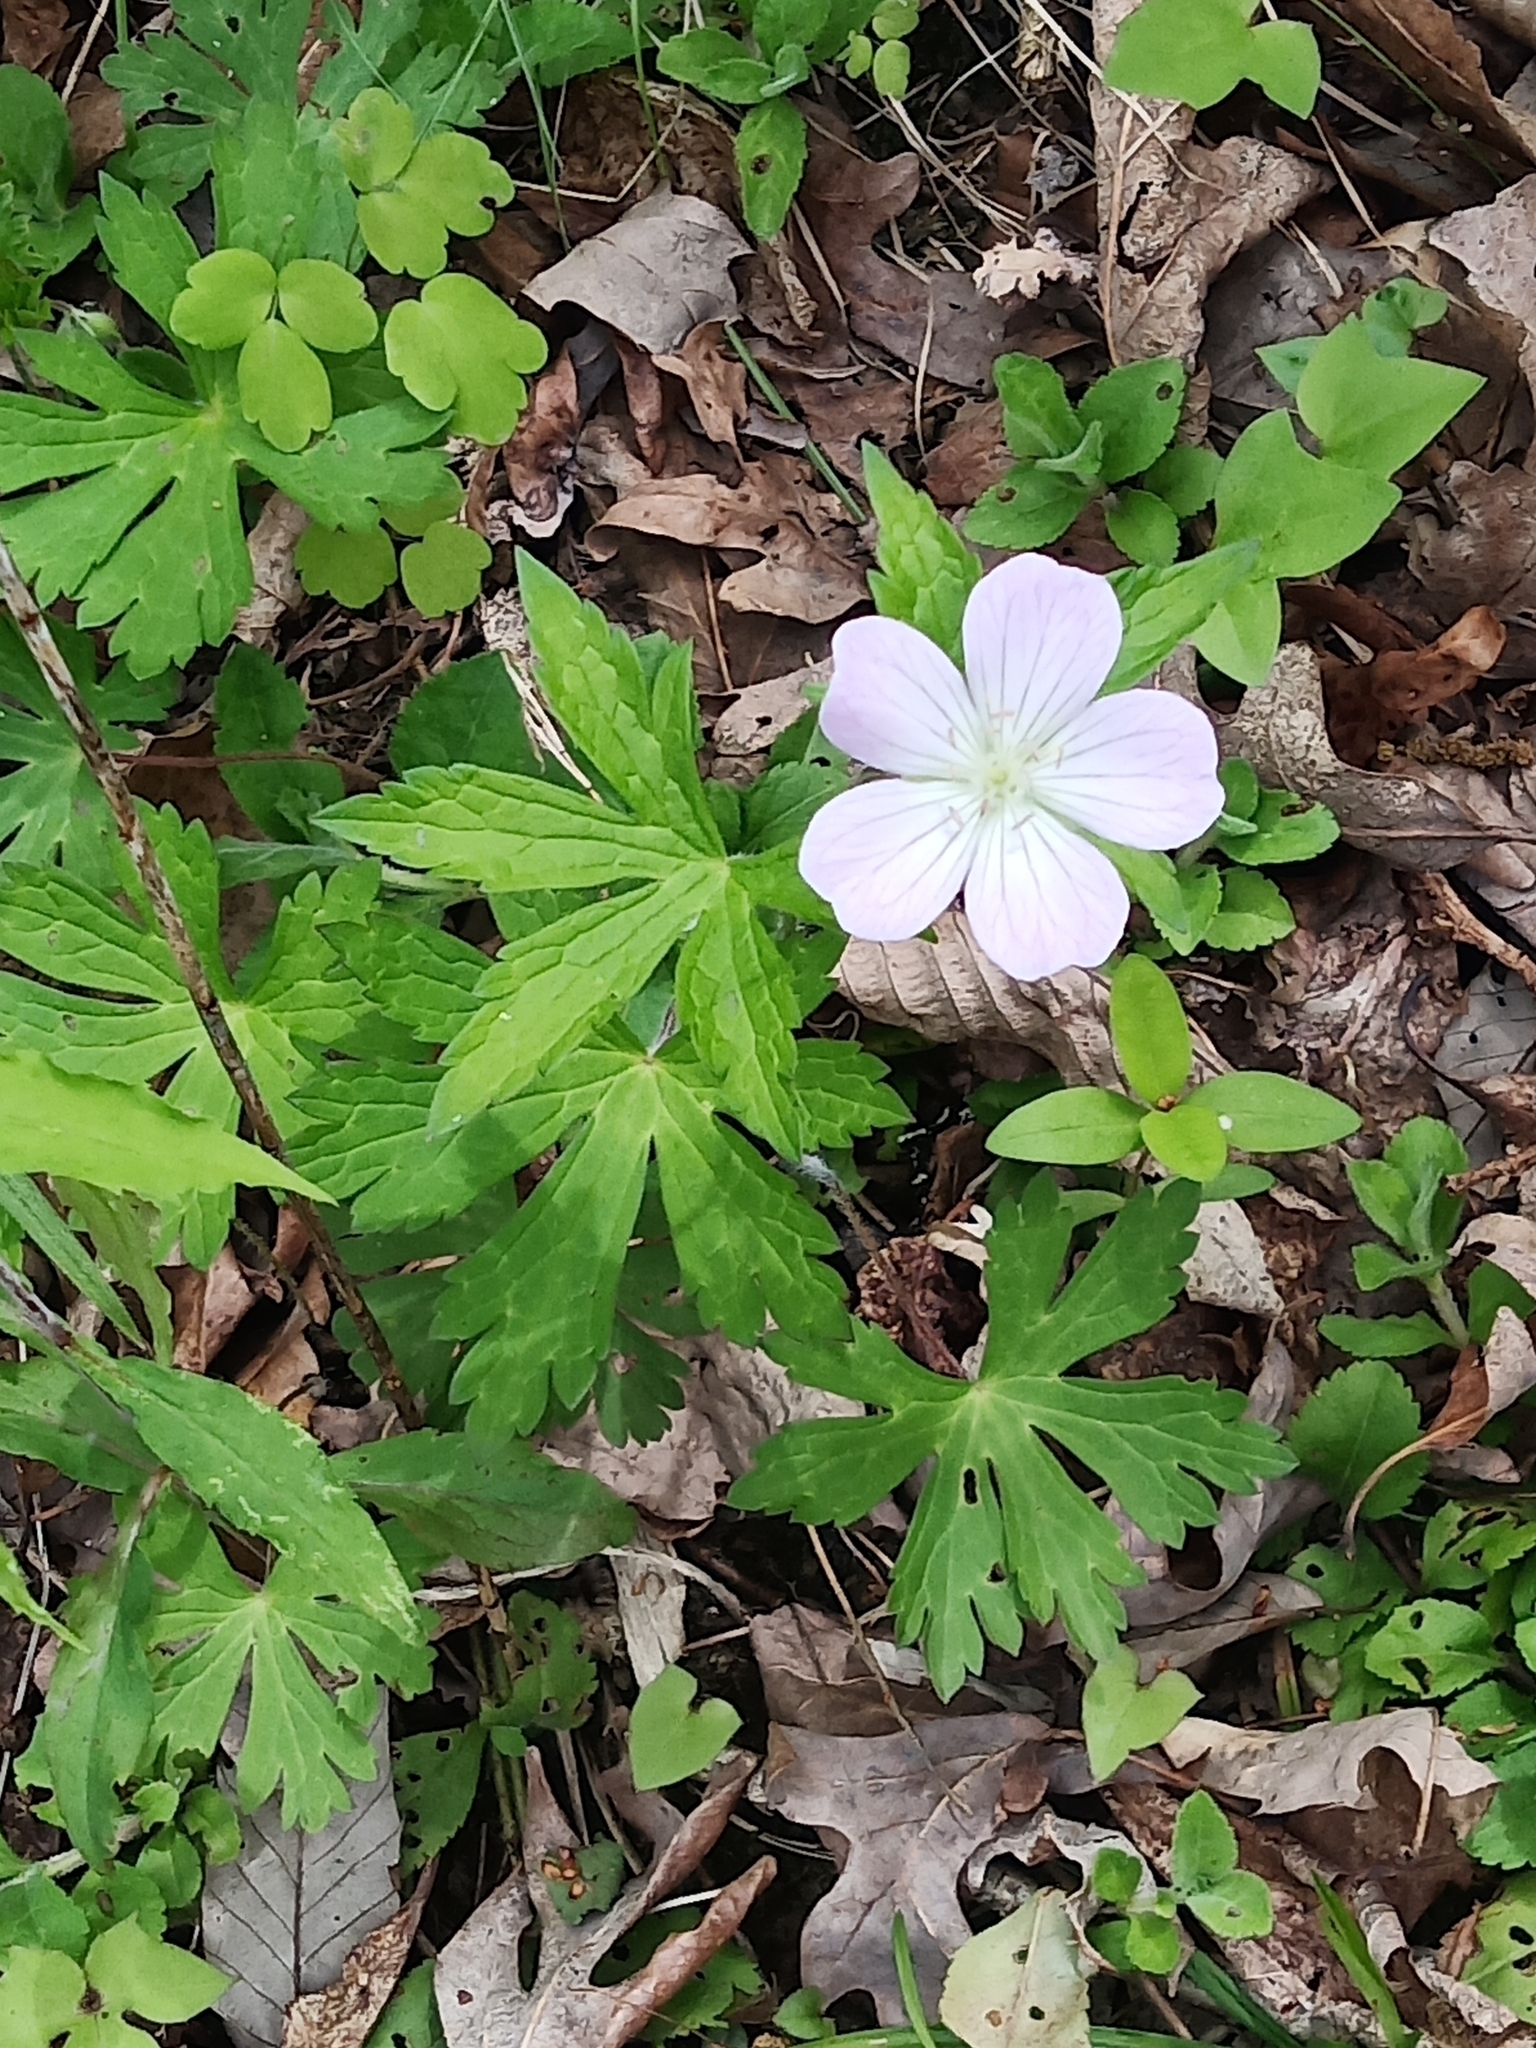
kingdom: Plantae
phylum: Tracheophyta
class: Magnoliopsida
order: Geraniales
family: Geraniaceae
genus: Geranium
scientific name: Geranium maculatum
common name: Spotted geranium
